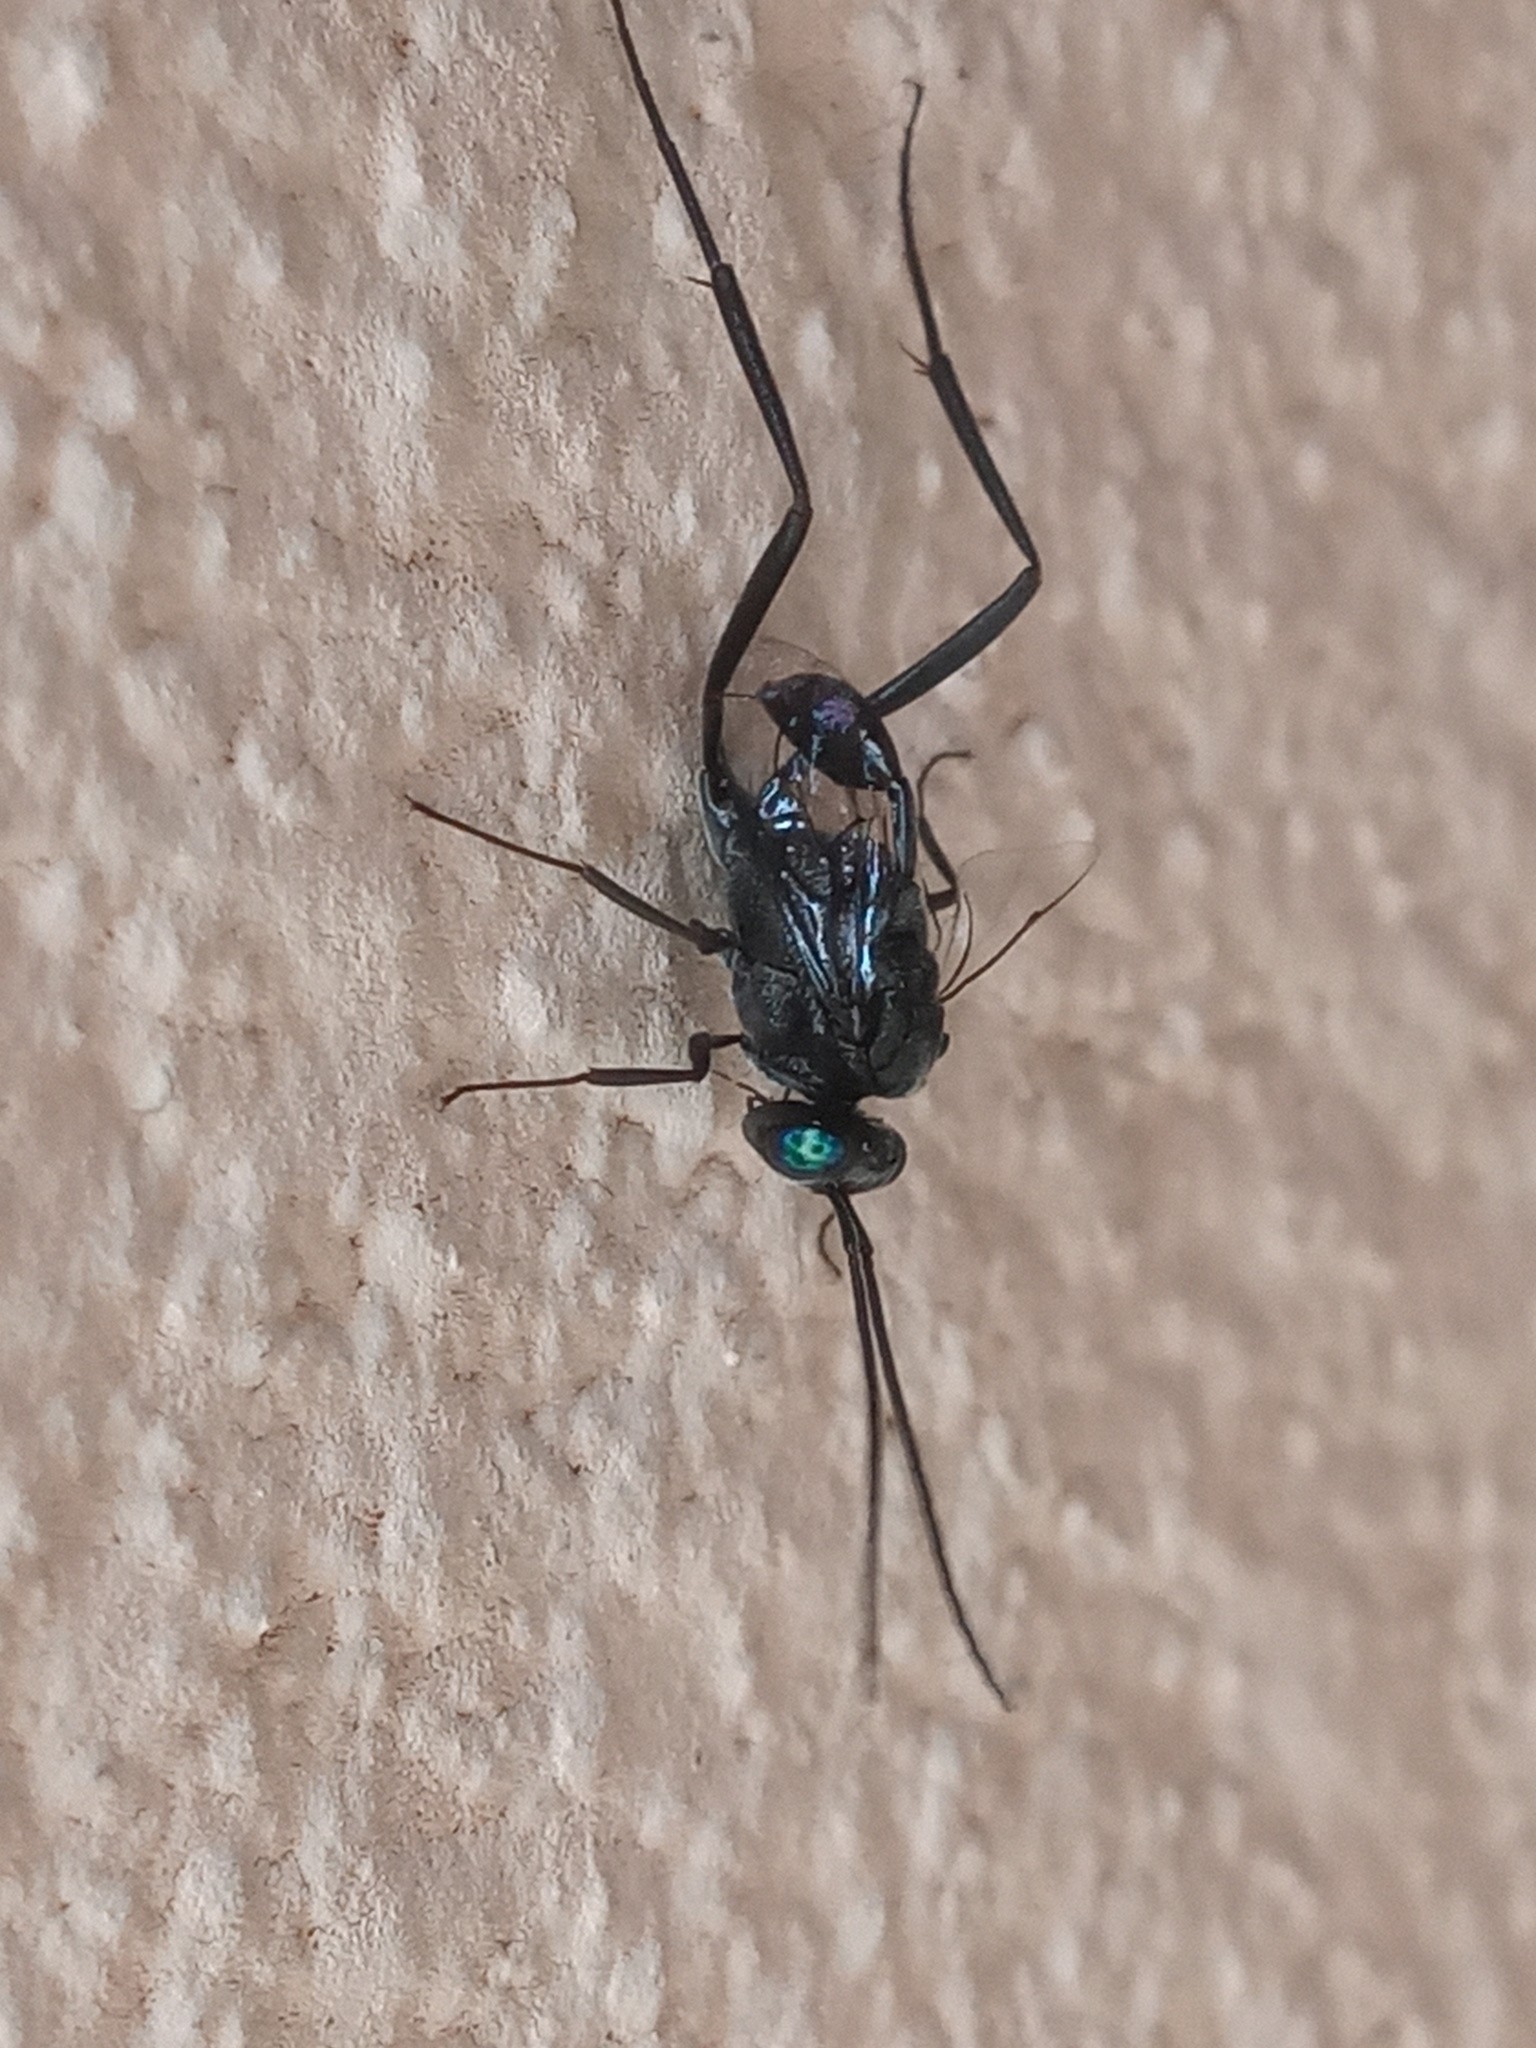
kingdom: Animalia
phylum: Arthropoda
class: Insecta
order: Hymenoptera
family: Evaniidae
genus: Evania
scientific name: Evania appendigaster
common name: Ensign wasp
